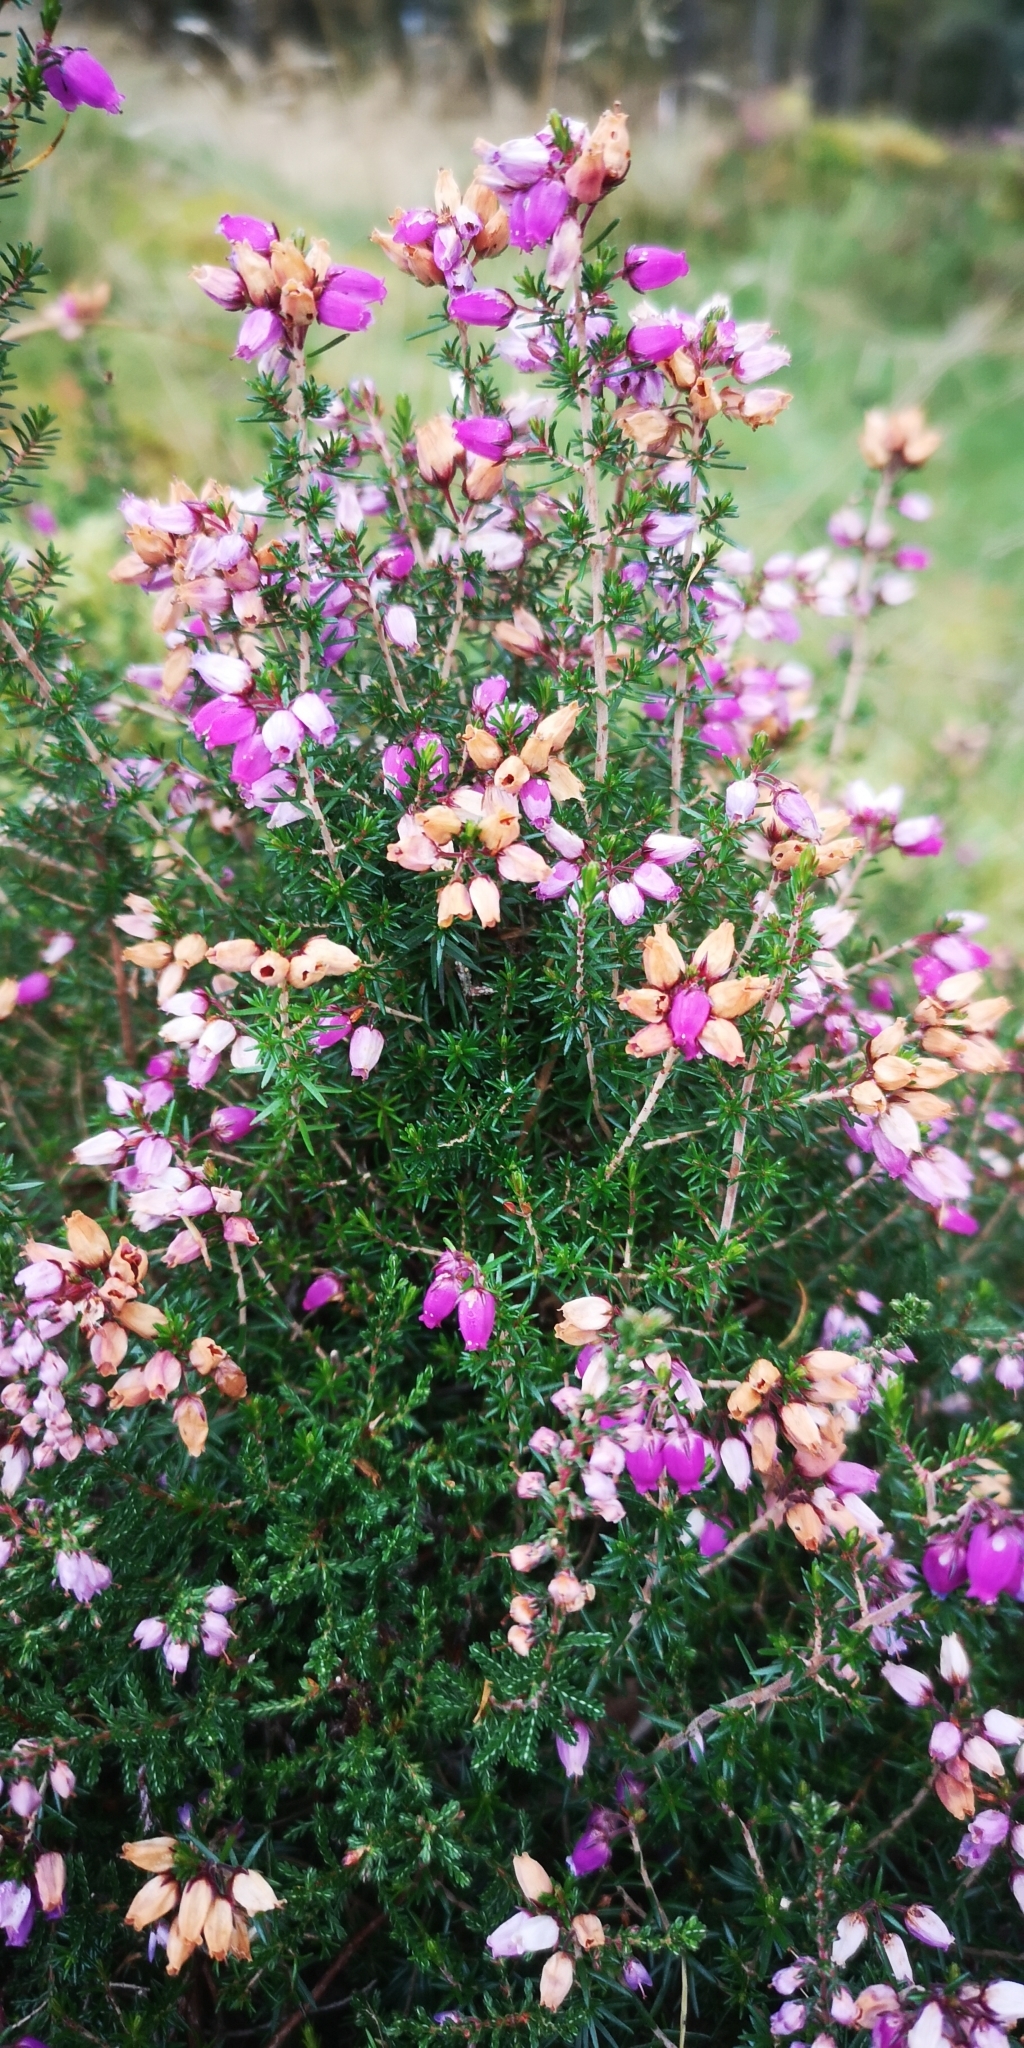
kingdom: Plantae
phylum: Tracheophyta
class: Magnoliopsida
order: Ericales
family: Ericaceae
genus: Erica
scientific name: Erica cinerea
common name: Bell heather
